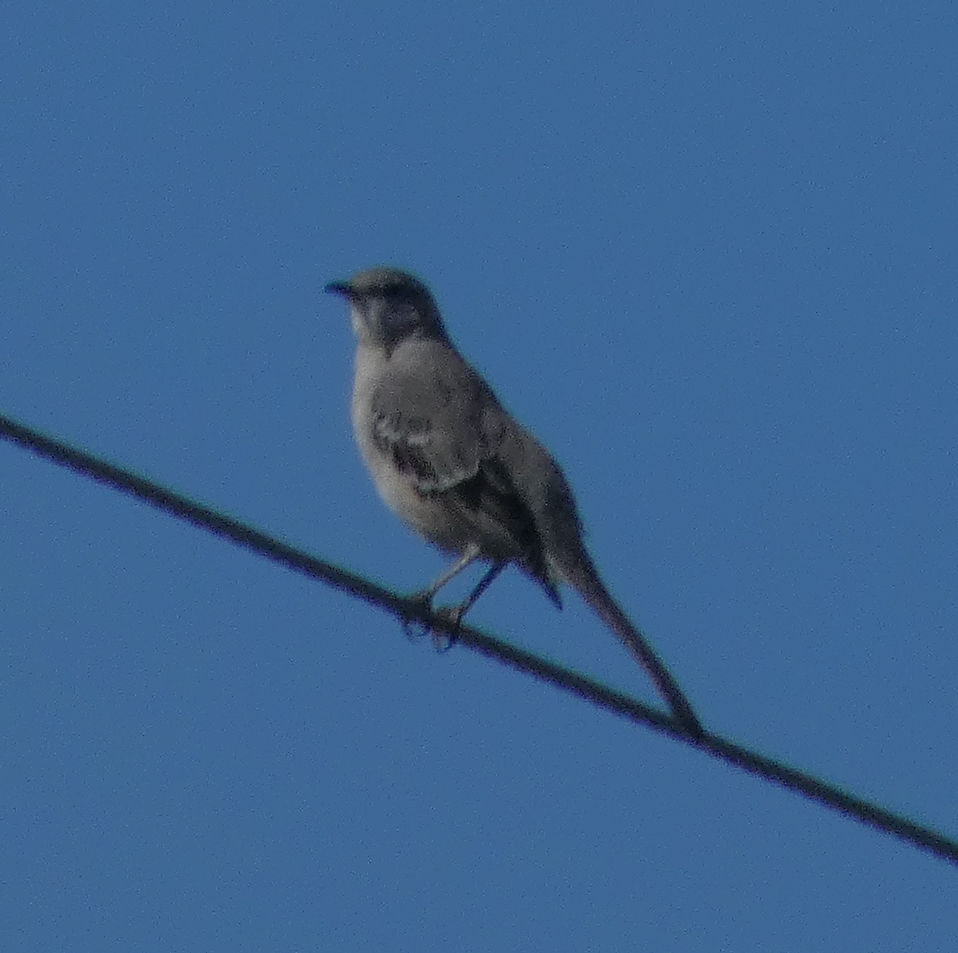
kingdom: Animalia
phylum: Chordata
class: Aves
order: Passeriformes
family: Mimidae
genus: Mimus
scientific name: Mimus polyglottos
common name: Northern mockingbird
